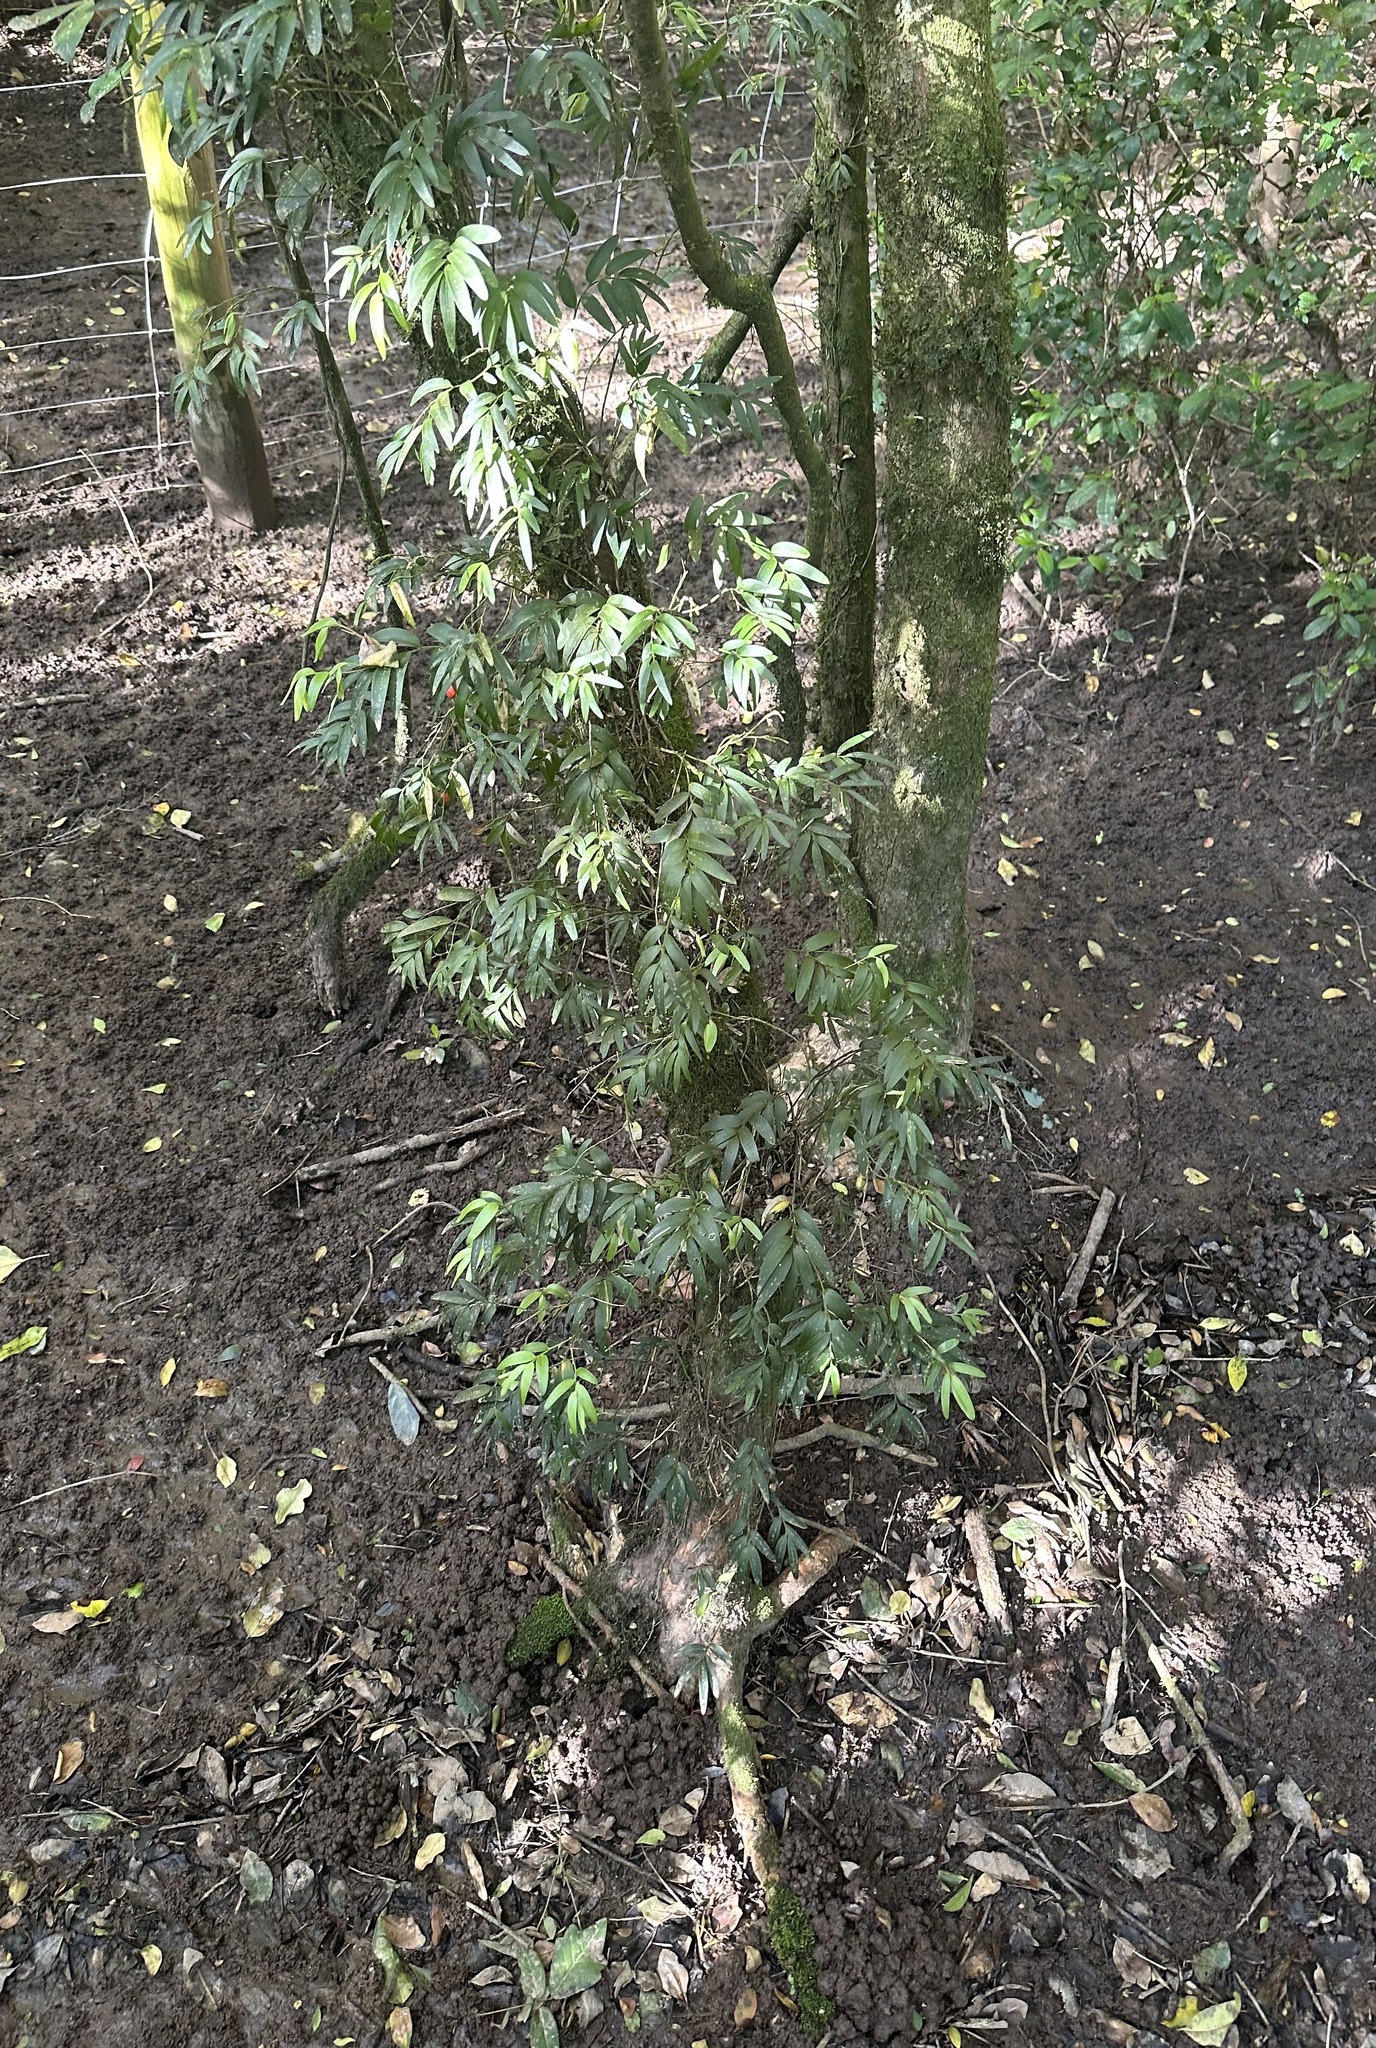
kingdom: Plantae
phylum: Tracheophyta
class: Liliopsida
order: Liliales
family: Alstroemeriaceae
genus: Luzuriaga
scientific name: Luzuriaga radicans
